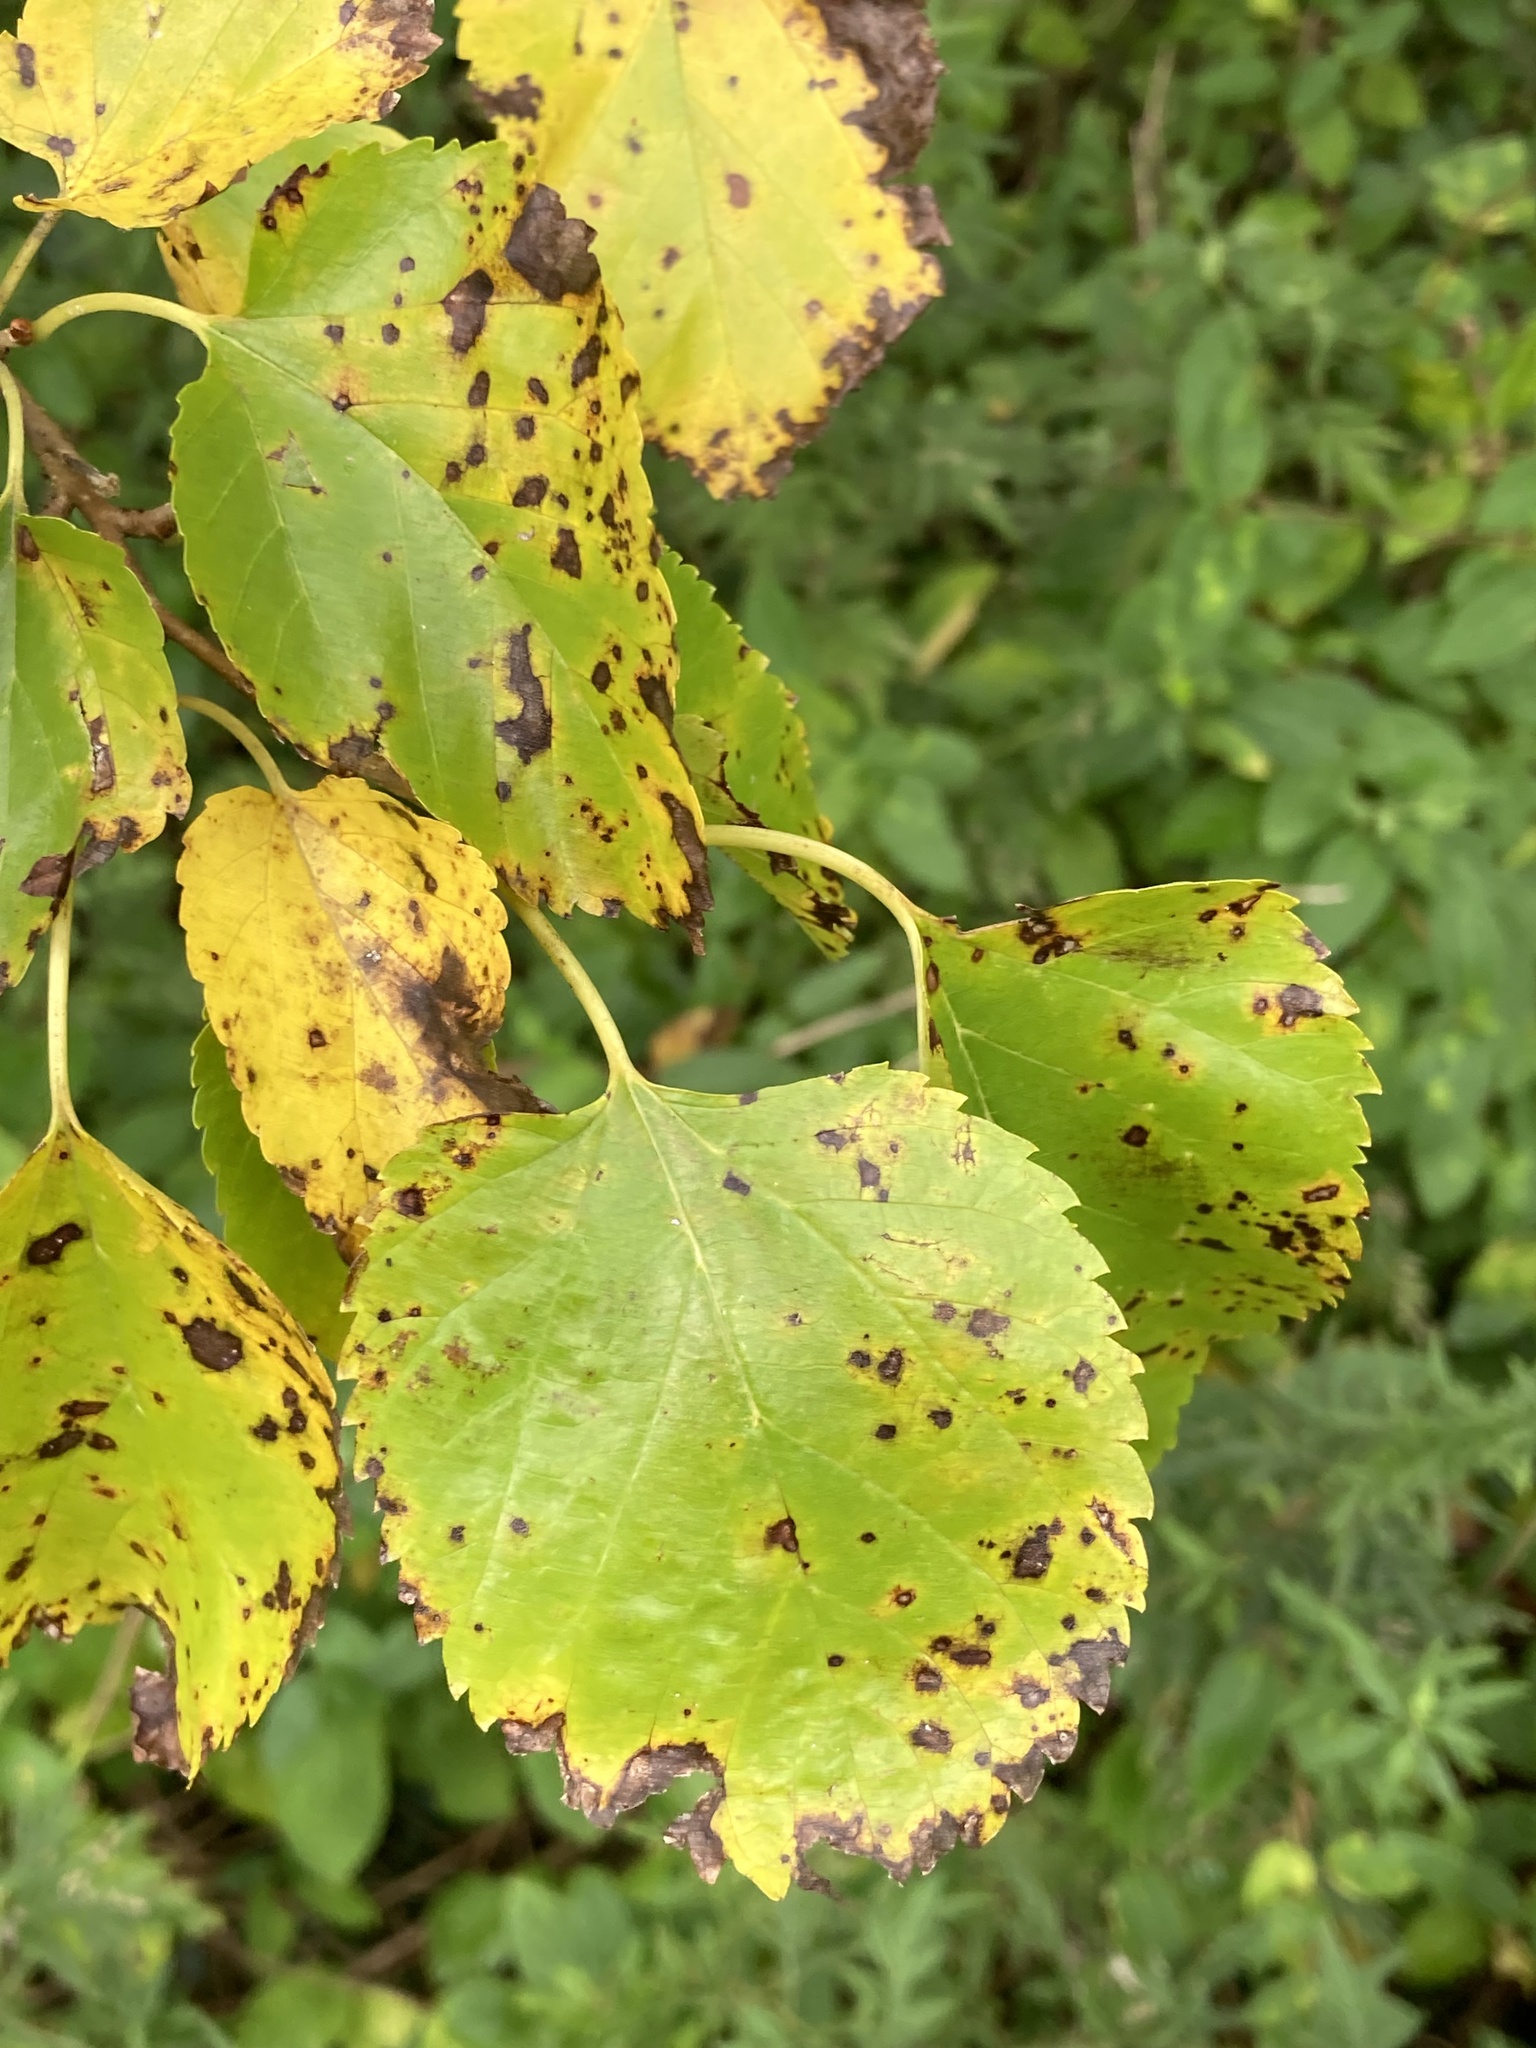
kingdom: Plantae
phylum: Tracheophyta
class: Magnoliopsida
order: Rosales
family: Moraceae
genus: Morus
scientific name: Morus alba
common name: White mulberry
